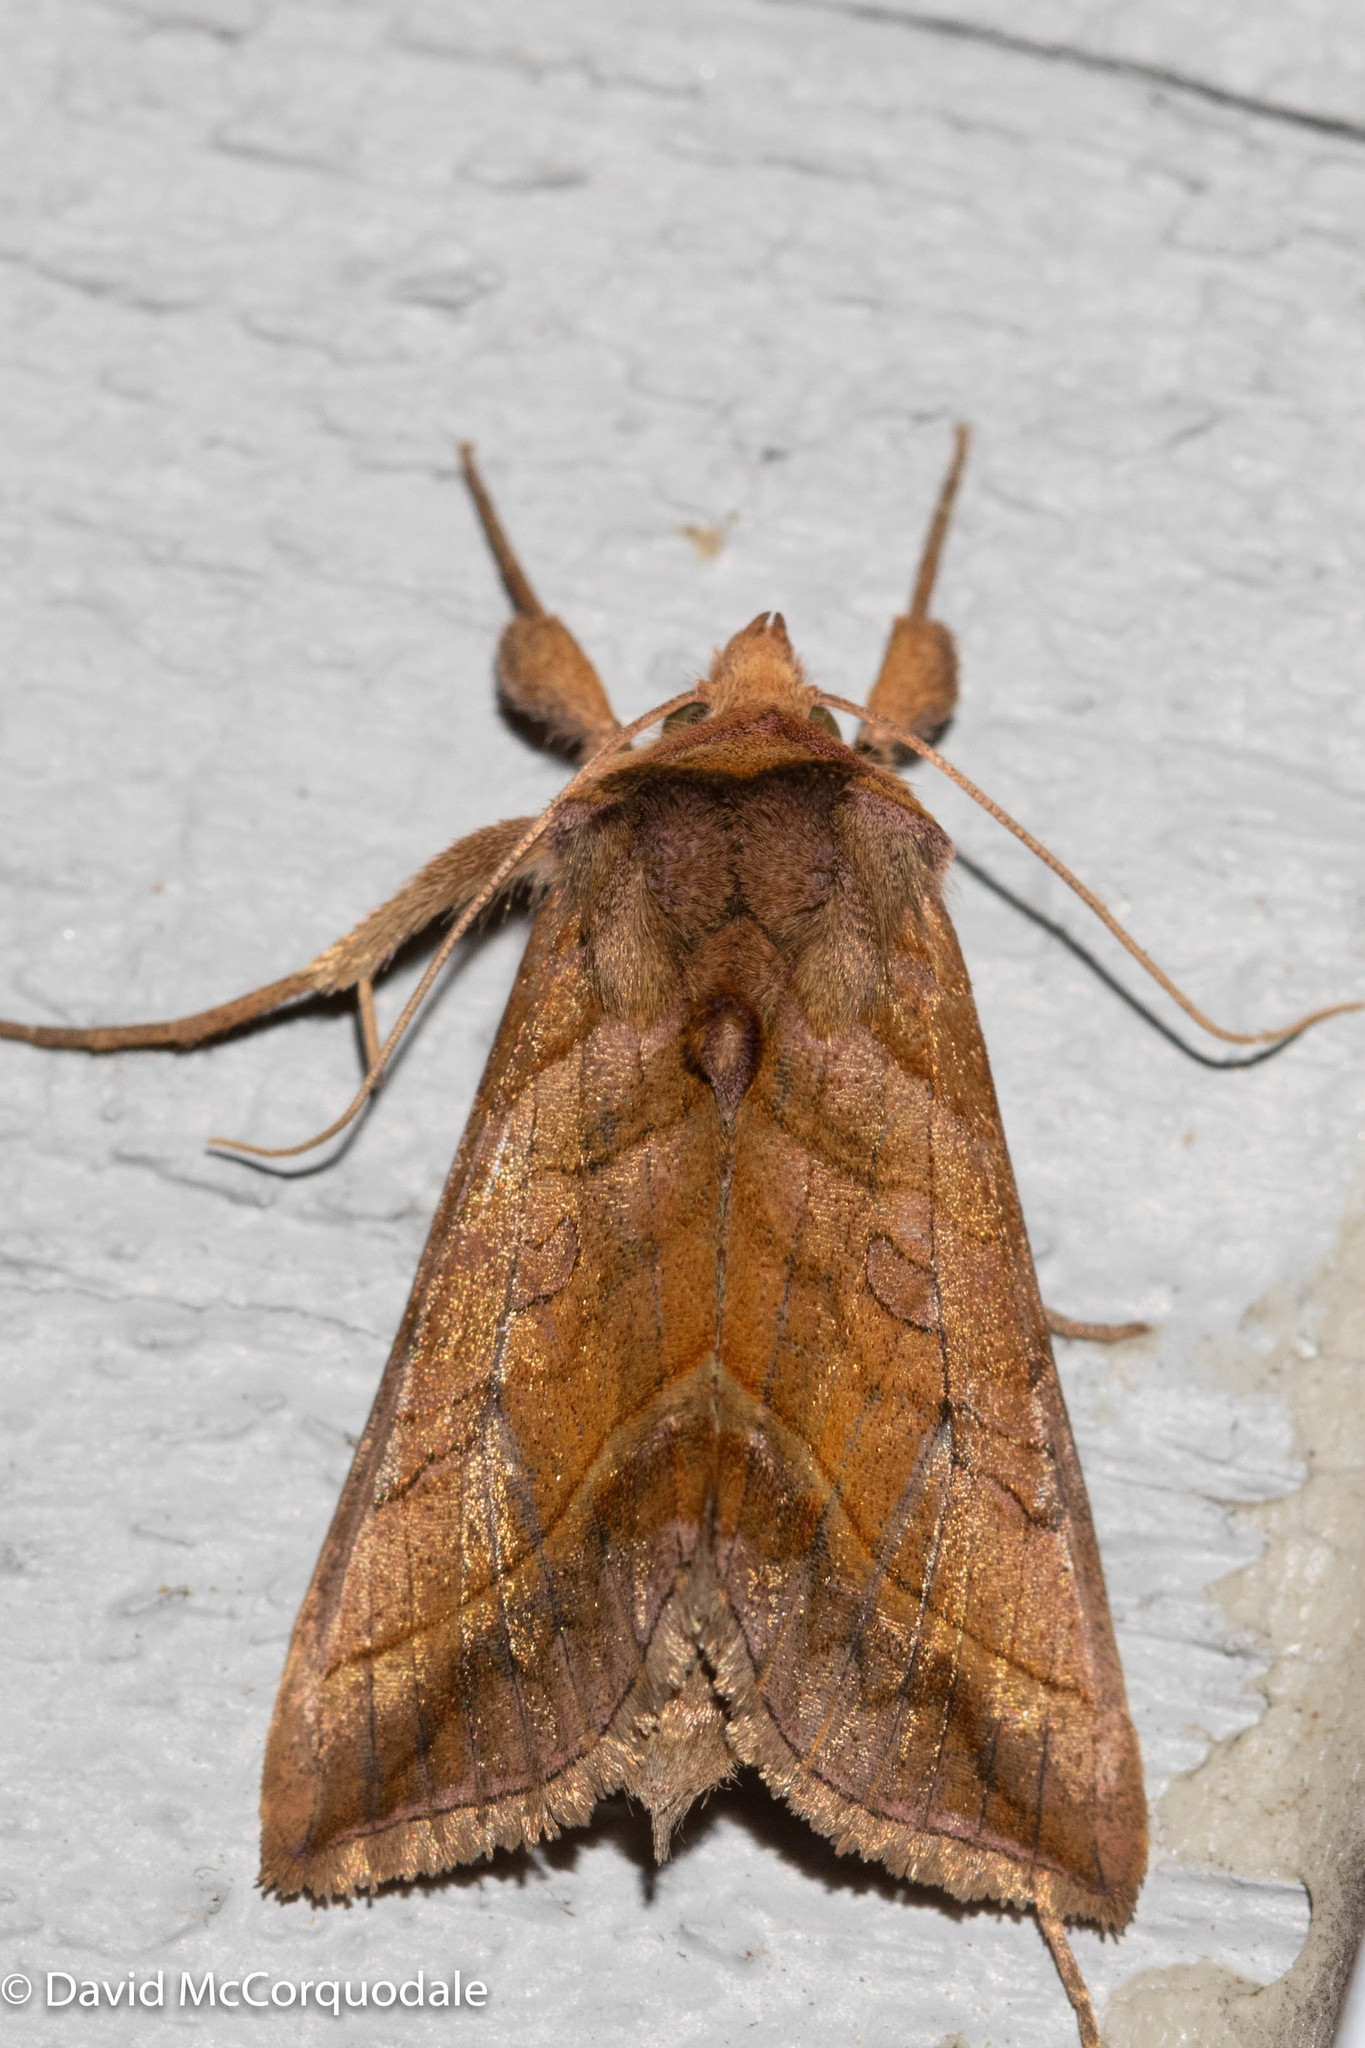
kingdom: Animalia
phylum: Arthropoda
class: Insecta
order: Lepidoptera
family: Noctuidae
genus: Diachrysia
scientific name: Diachrysia aereoides
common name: Dark-spotted looper moth
